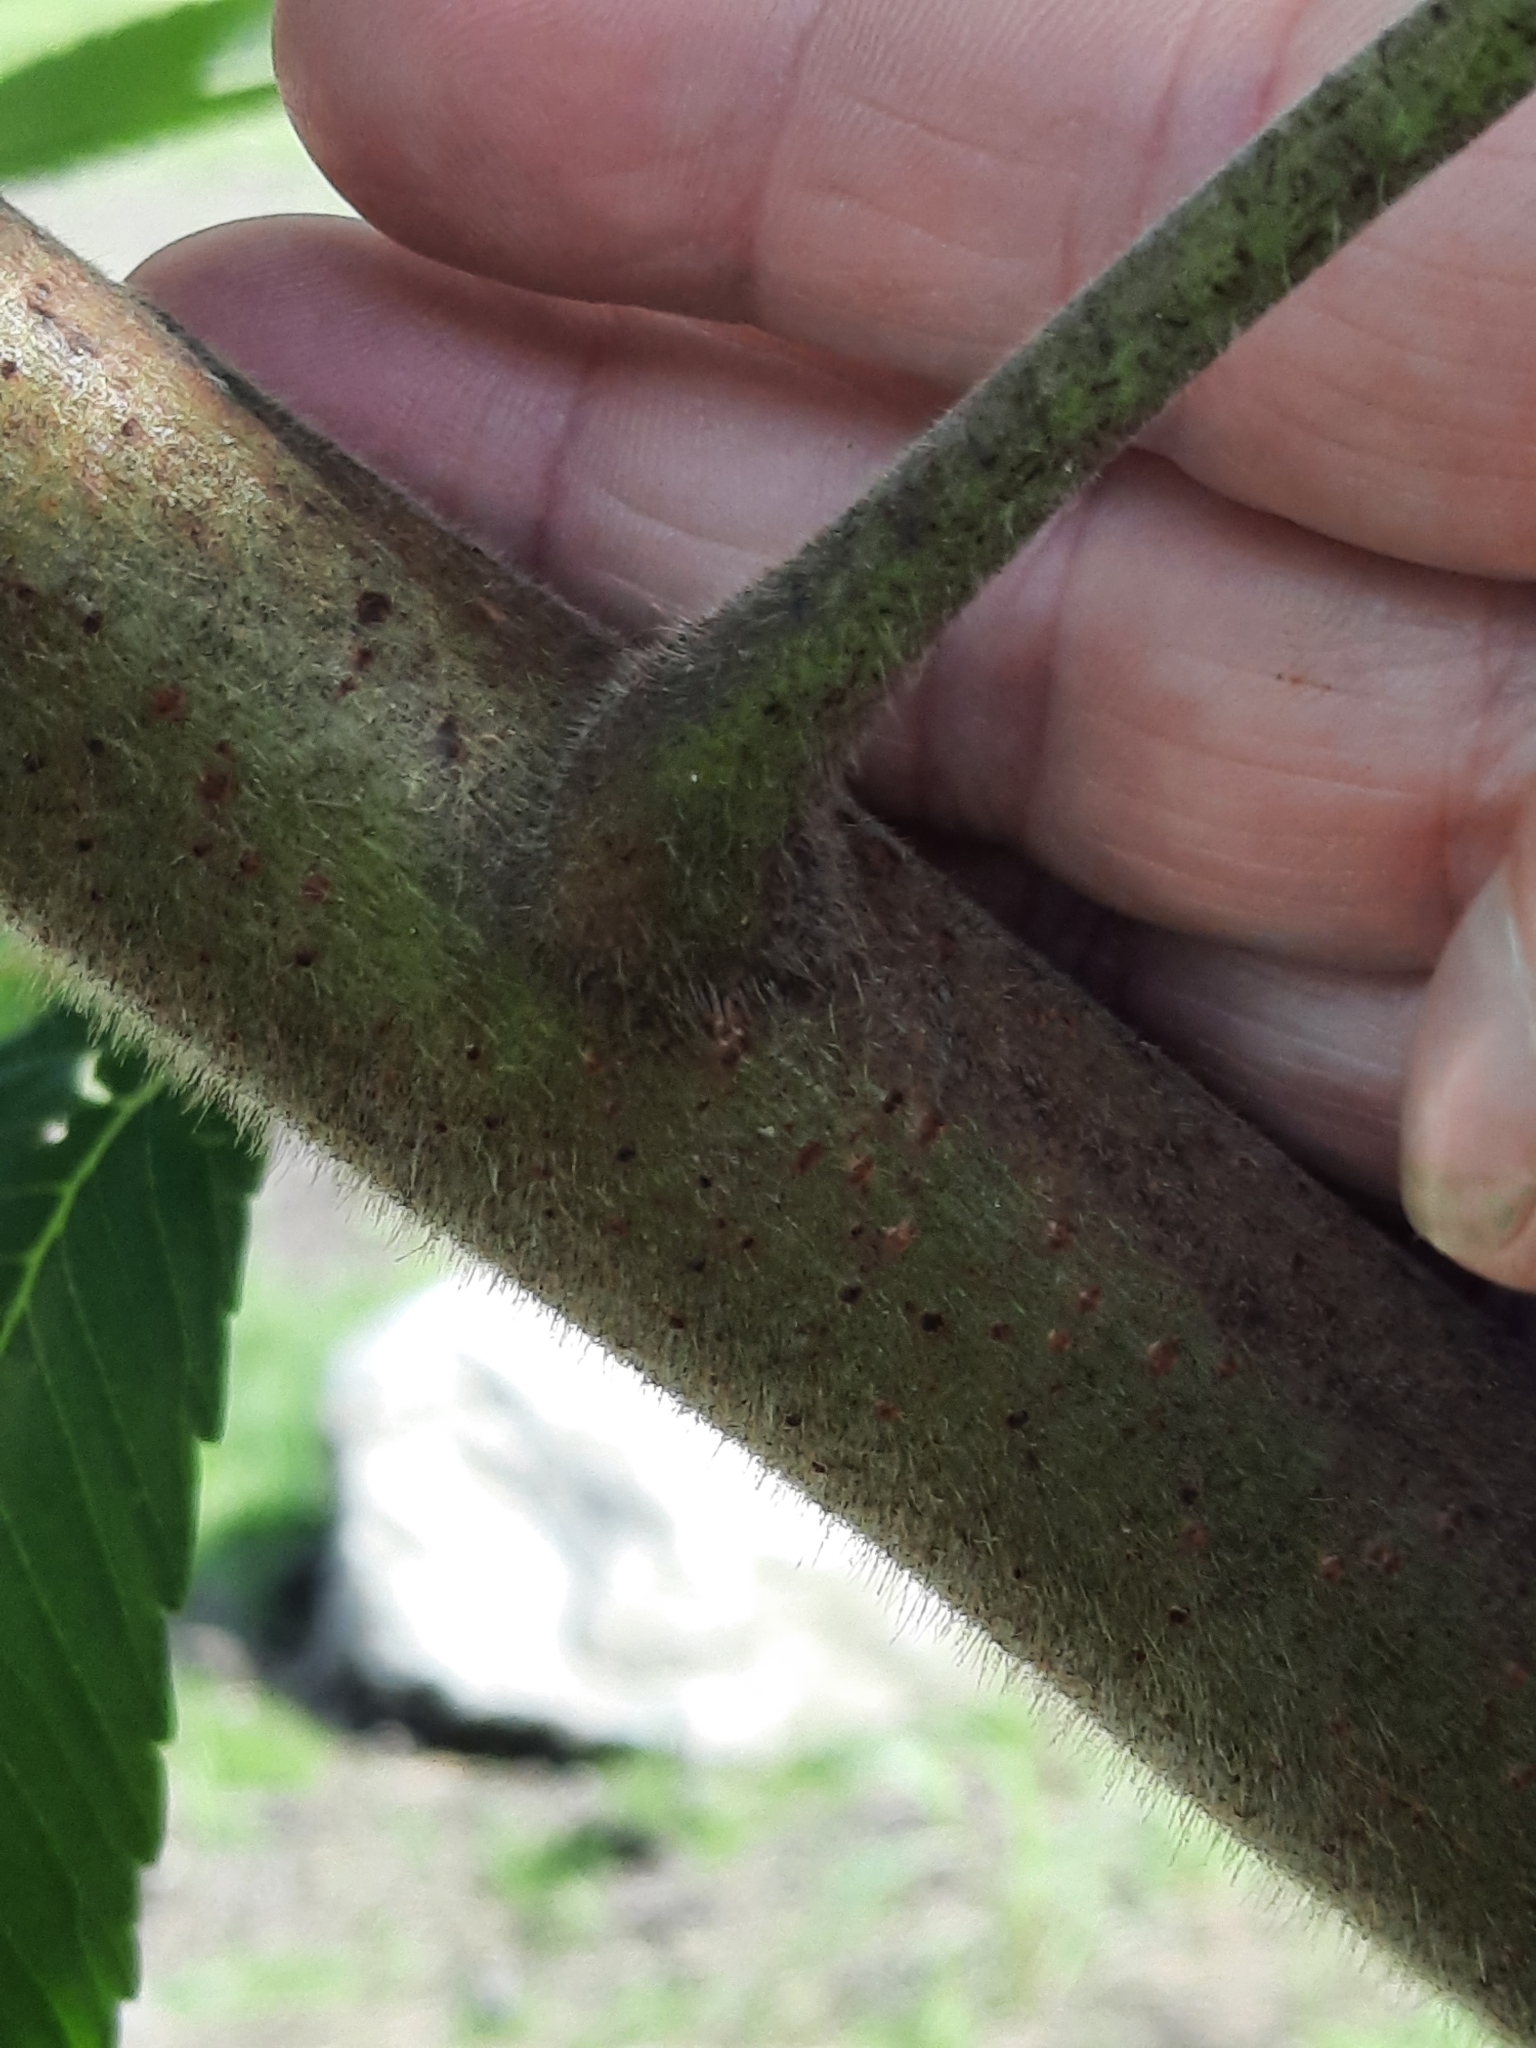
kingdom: Plantae
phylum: Tracheophyta
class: Magnoliopsida
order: Sapindales
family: Anacardiaceae
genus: Rhus
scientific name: Rhus typhina
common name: Staghorn sumac
